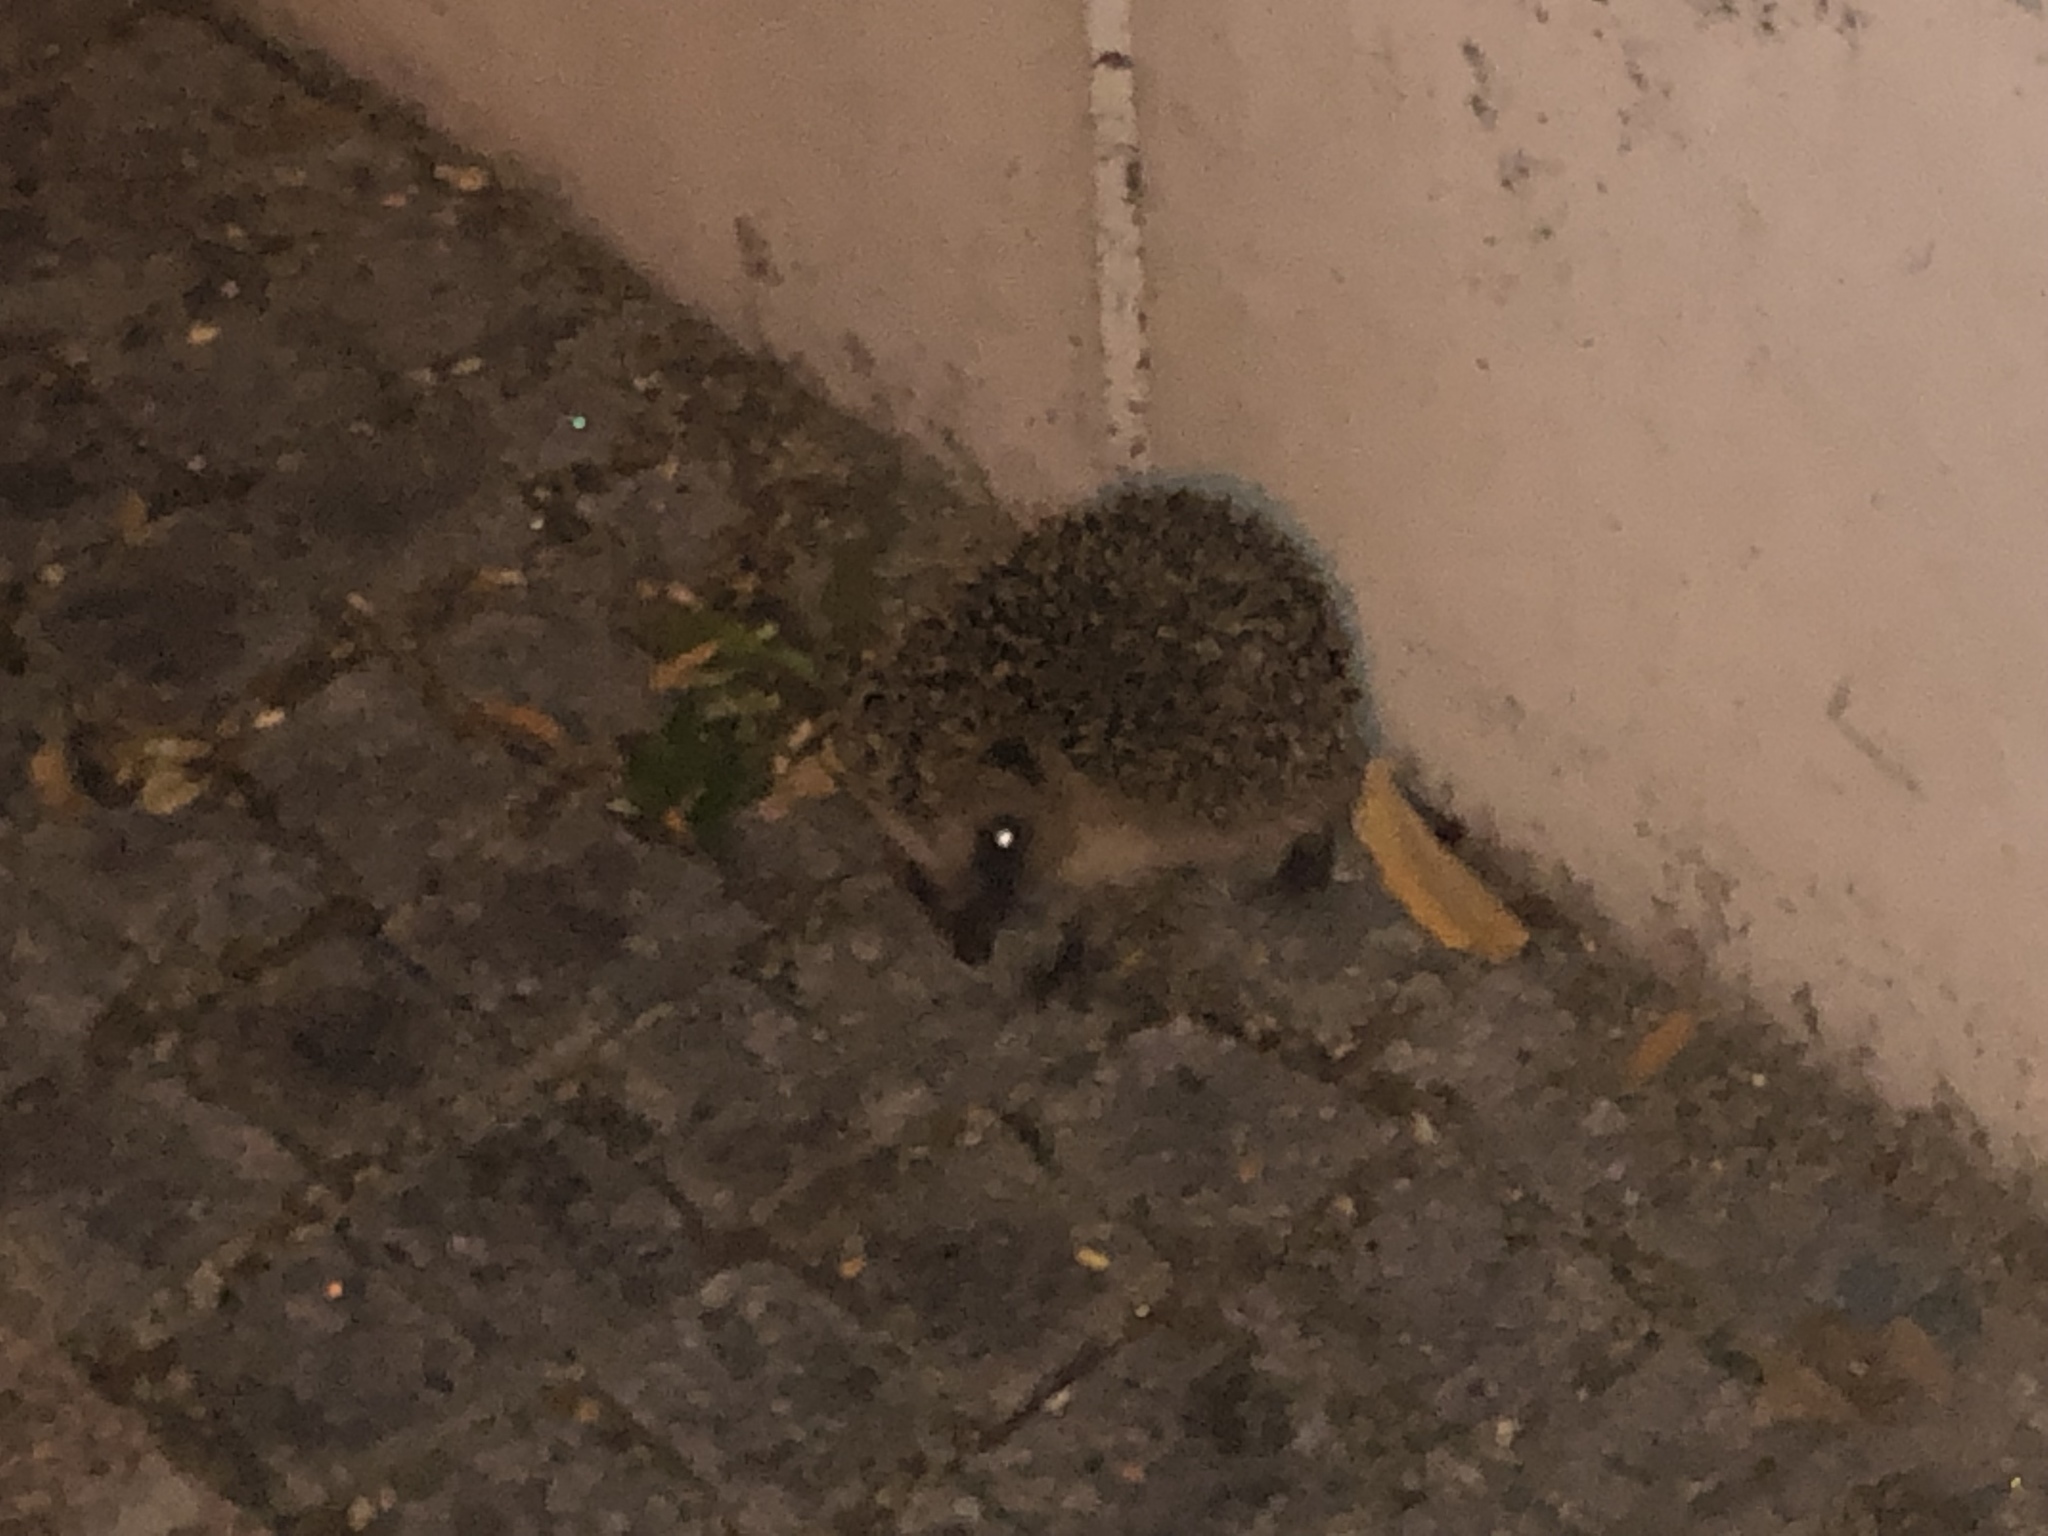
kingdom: Animalia
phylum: Chordata
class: Mammalia
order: Erinaceomorpha
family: Erinaceidae
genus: Erinaceus
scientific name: Erinaceus europaeus
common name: West european hedgehog
